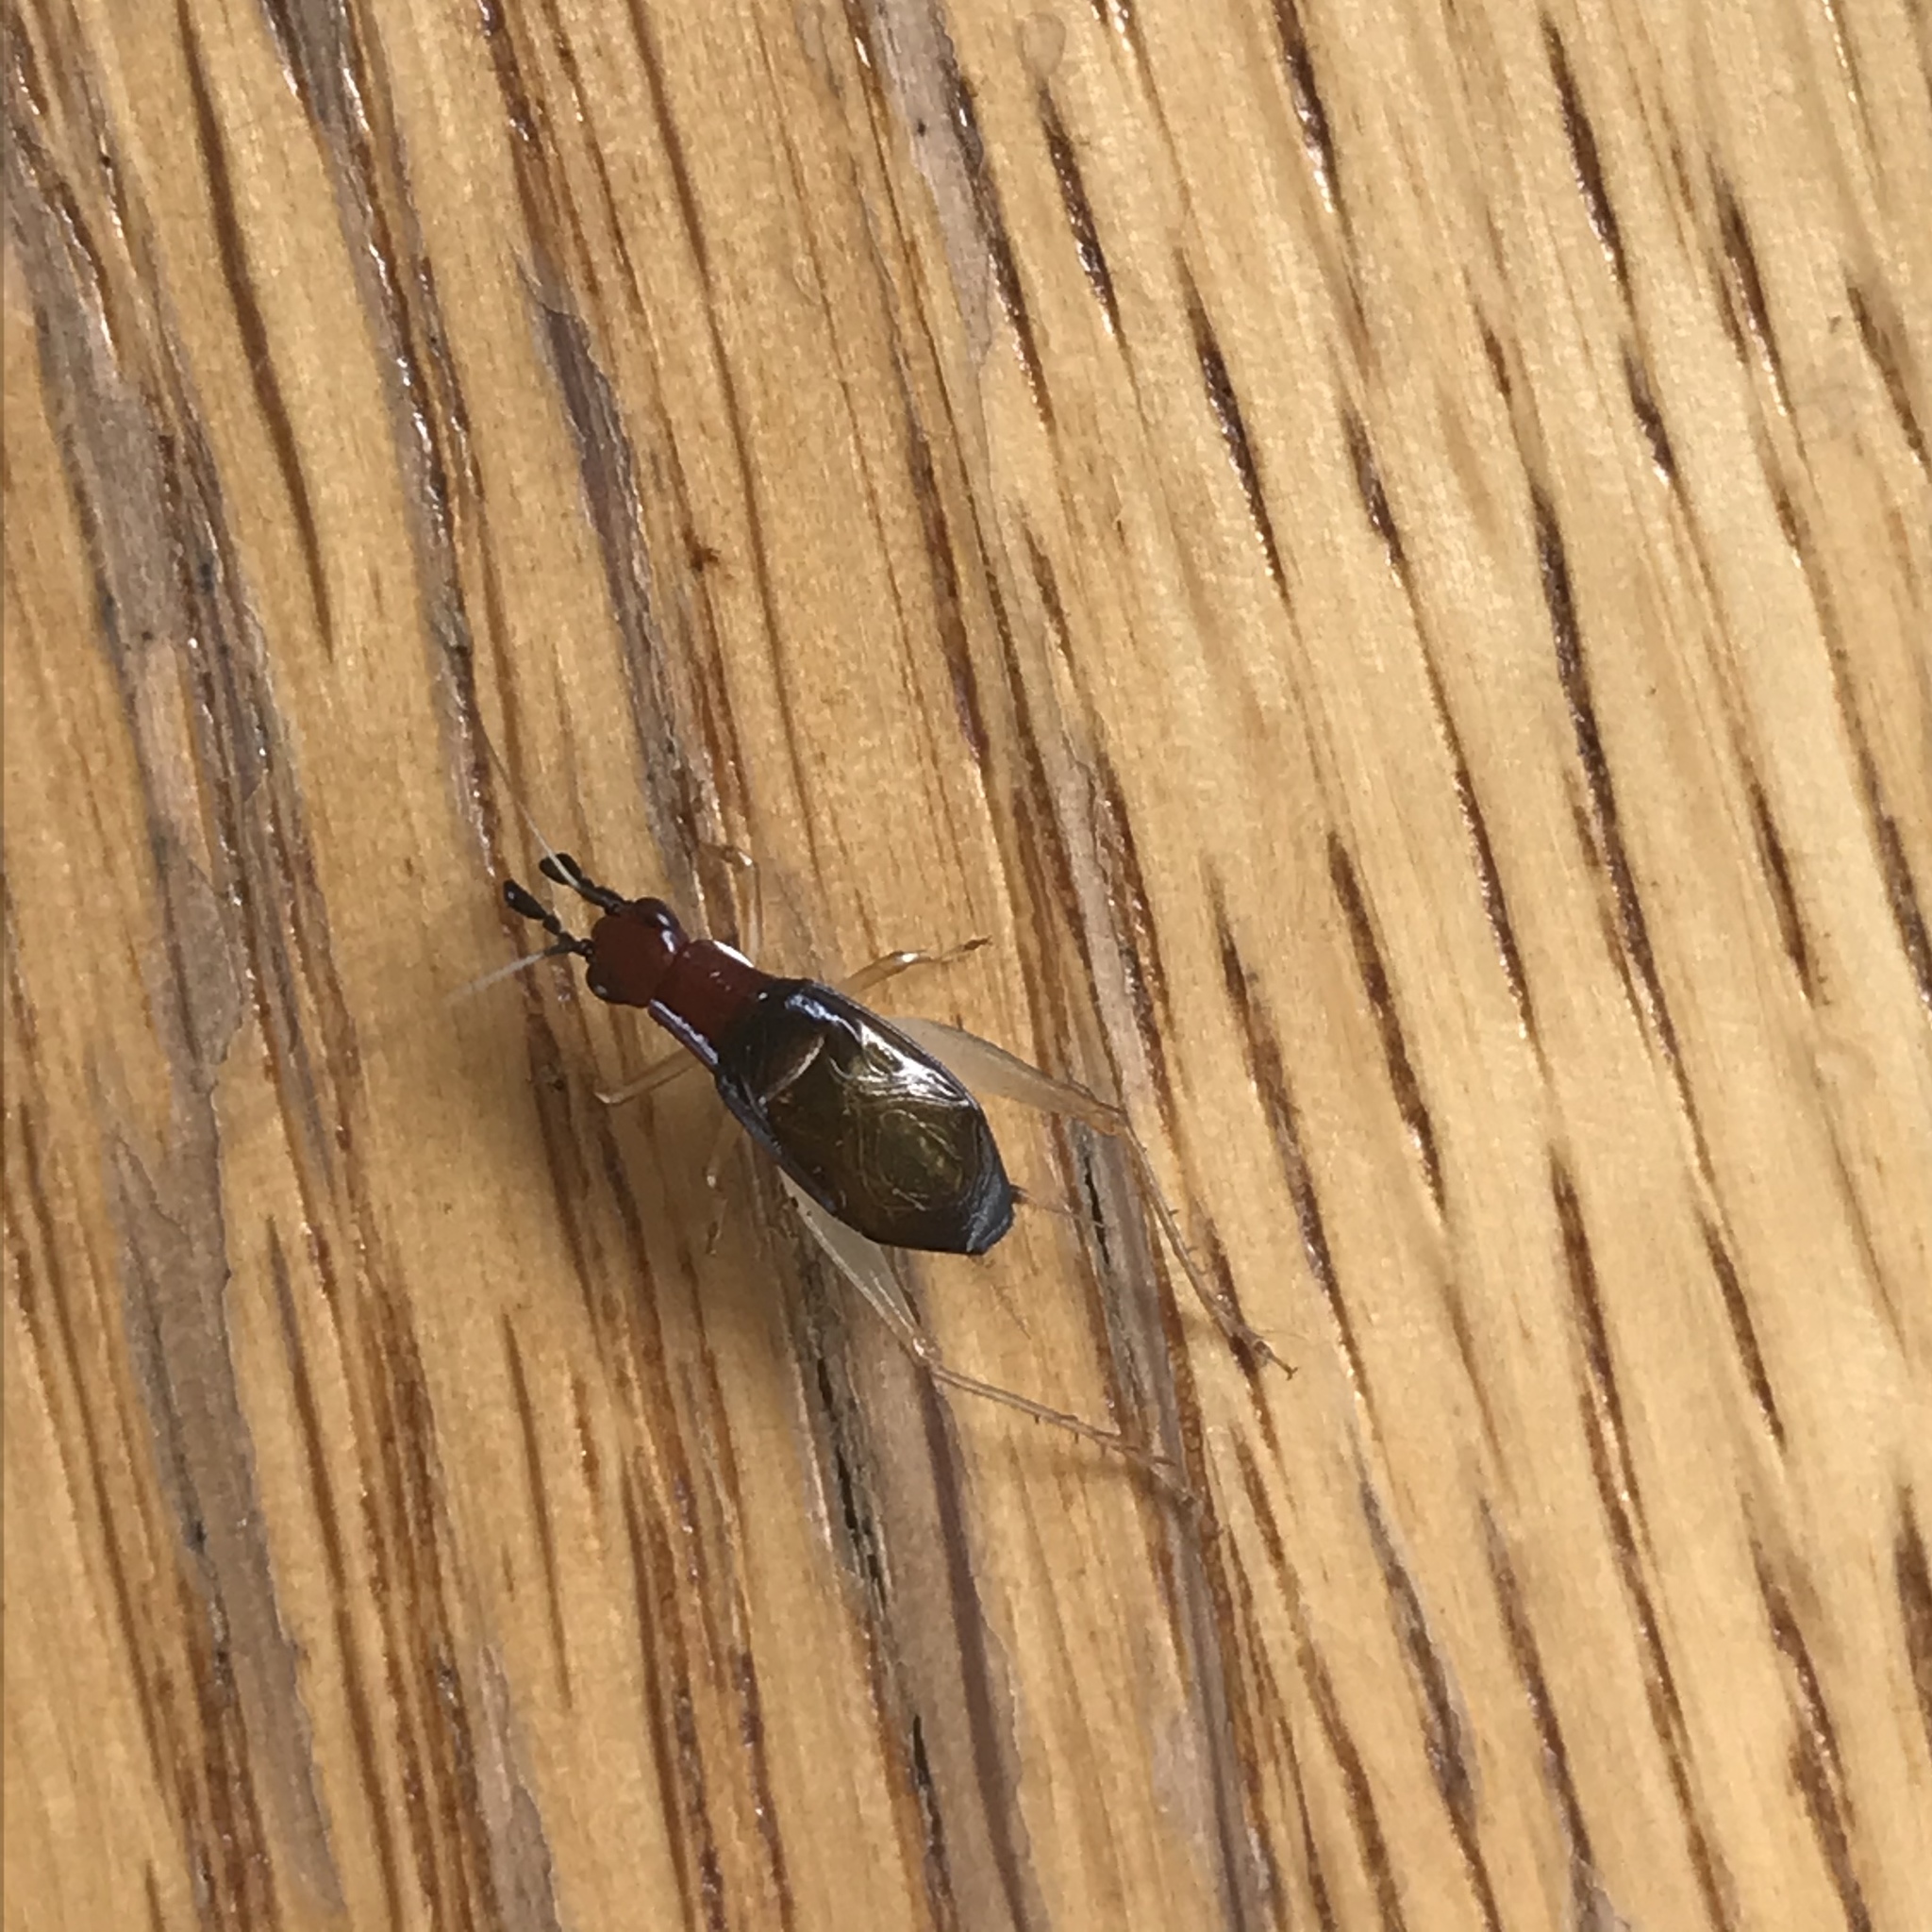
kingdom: Animalia
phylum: Arthropoda
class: Insecta
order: Orthoptera
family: Trigonidiidae
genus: Phyllopalpus
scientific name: Phyllopalpus pulchellus
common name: Handsome trig
